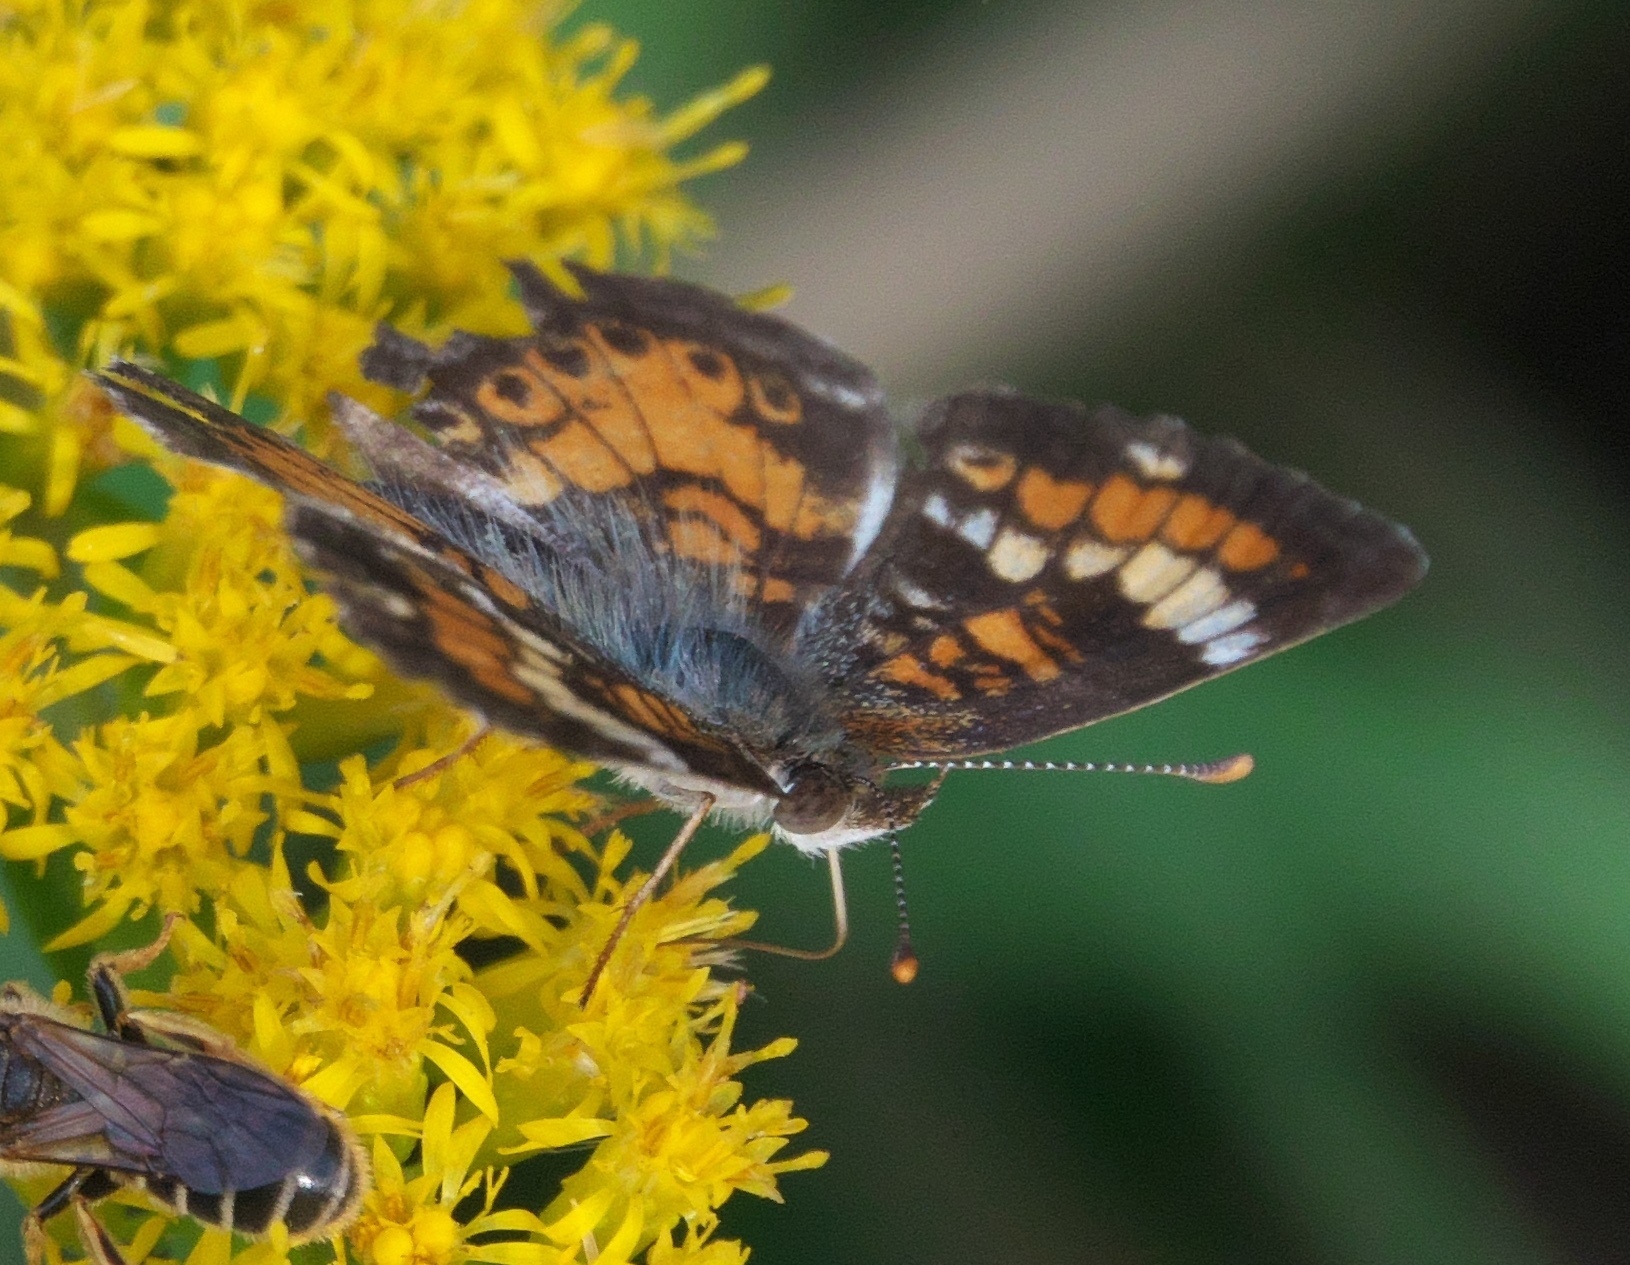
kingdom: Animalia
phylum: Arthropoda
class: Insecta
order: Lepidoptera
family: Nymphalidae
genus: Phyciodes
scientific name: Phyciodes phaon
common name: Phaon crescent
